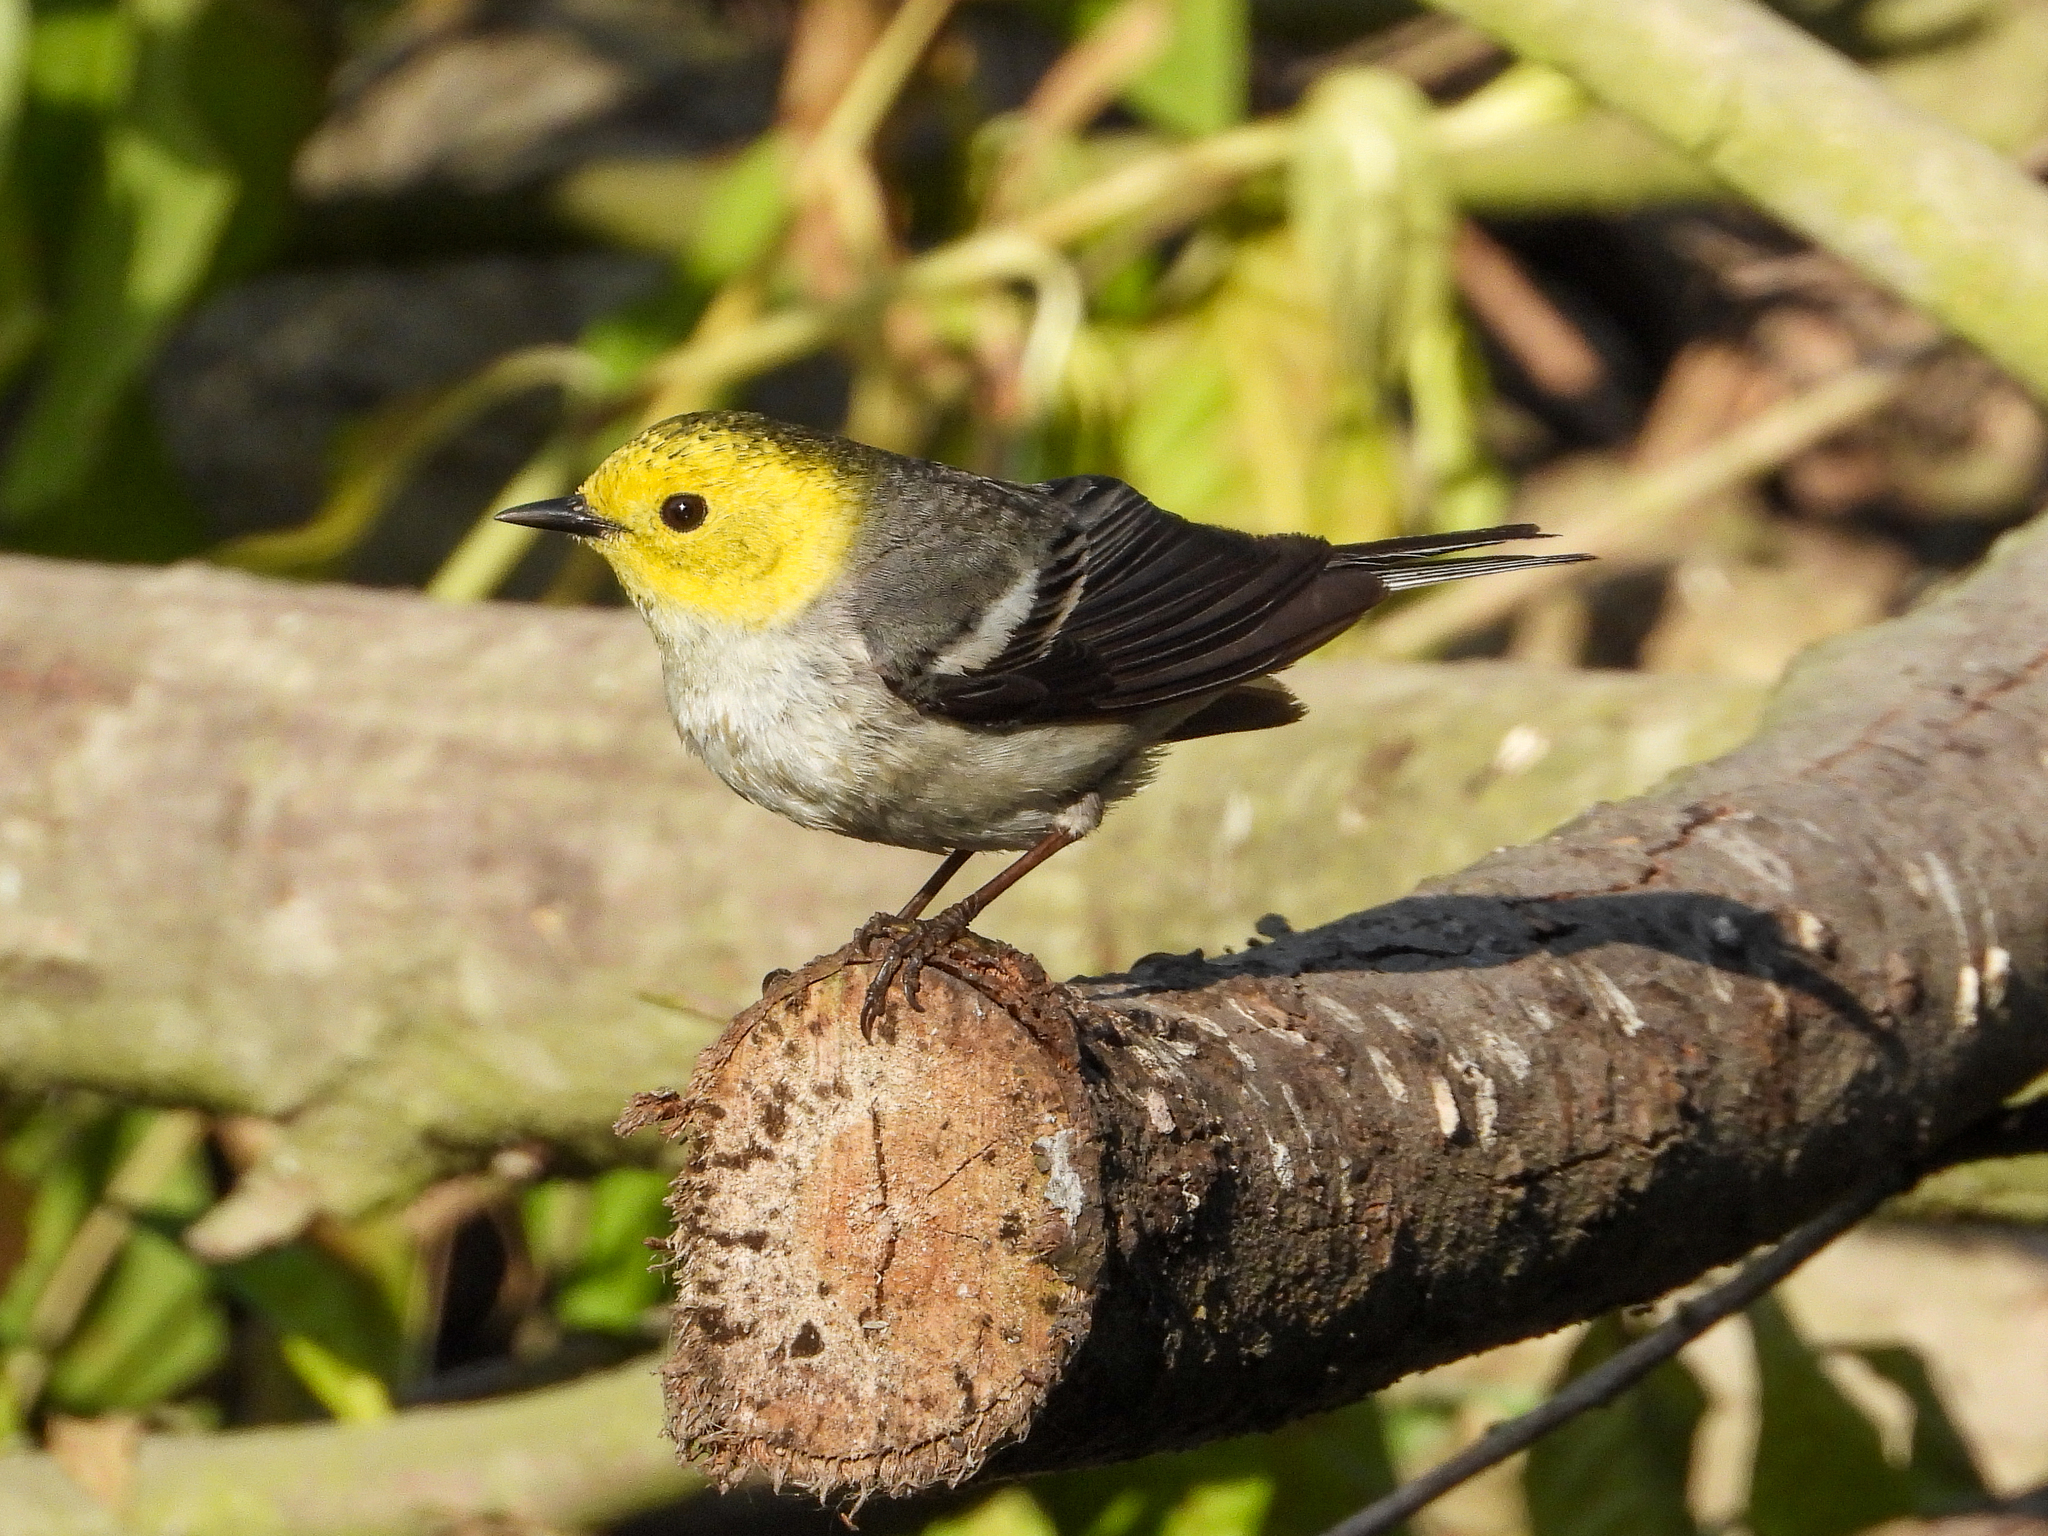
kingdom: Animalia
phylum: Chordata
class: Aves
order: Passeriformes
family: Parulidae
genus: Setophaga
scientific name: Setophaga occidentalis
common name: Hermit warbler
